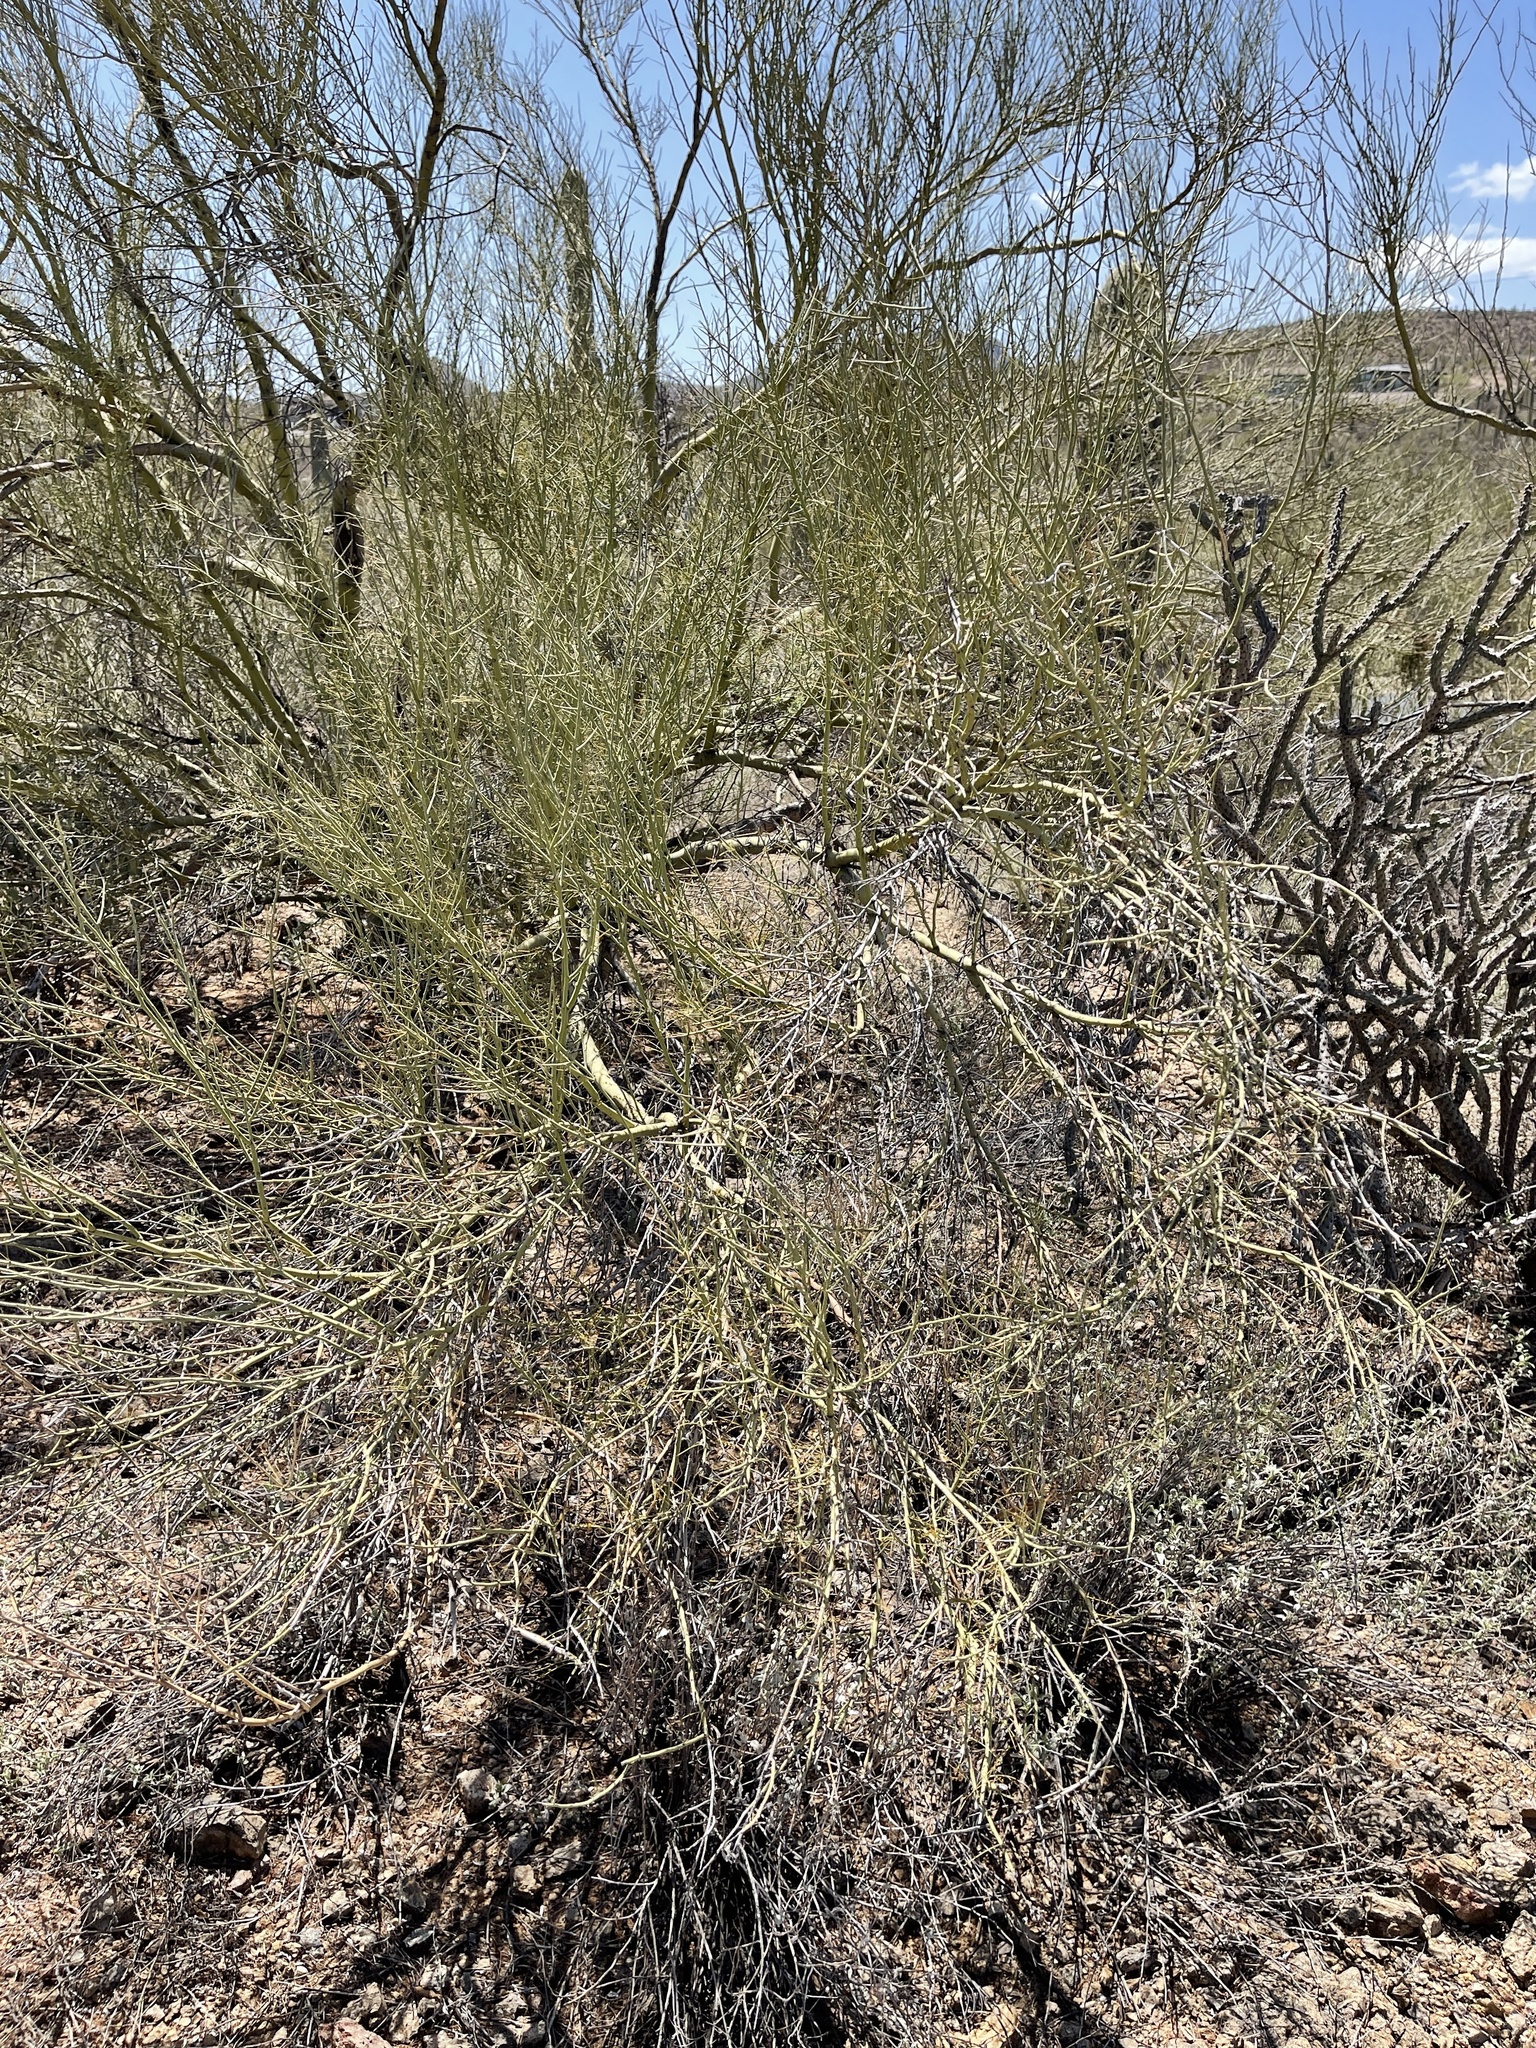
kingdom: Plantae
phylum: Tracheophyta
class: Magnoliopsida
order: Fabales
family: Fabaceae
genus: Parkinsonia
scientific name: Parkinsonia microphylla
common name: Yellow paloverde
